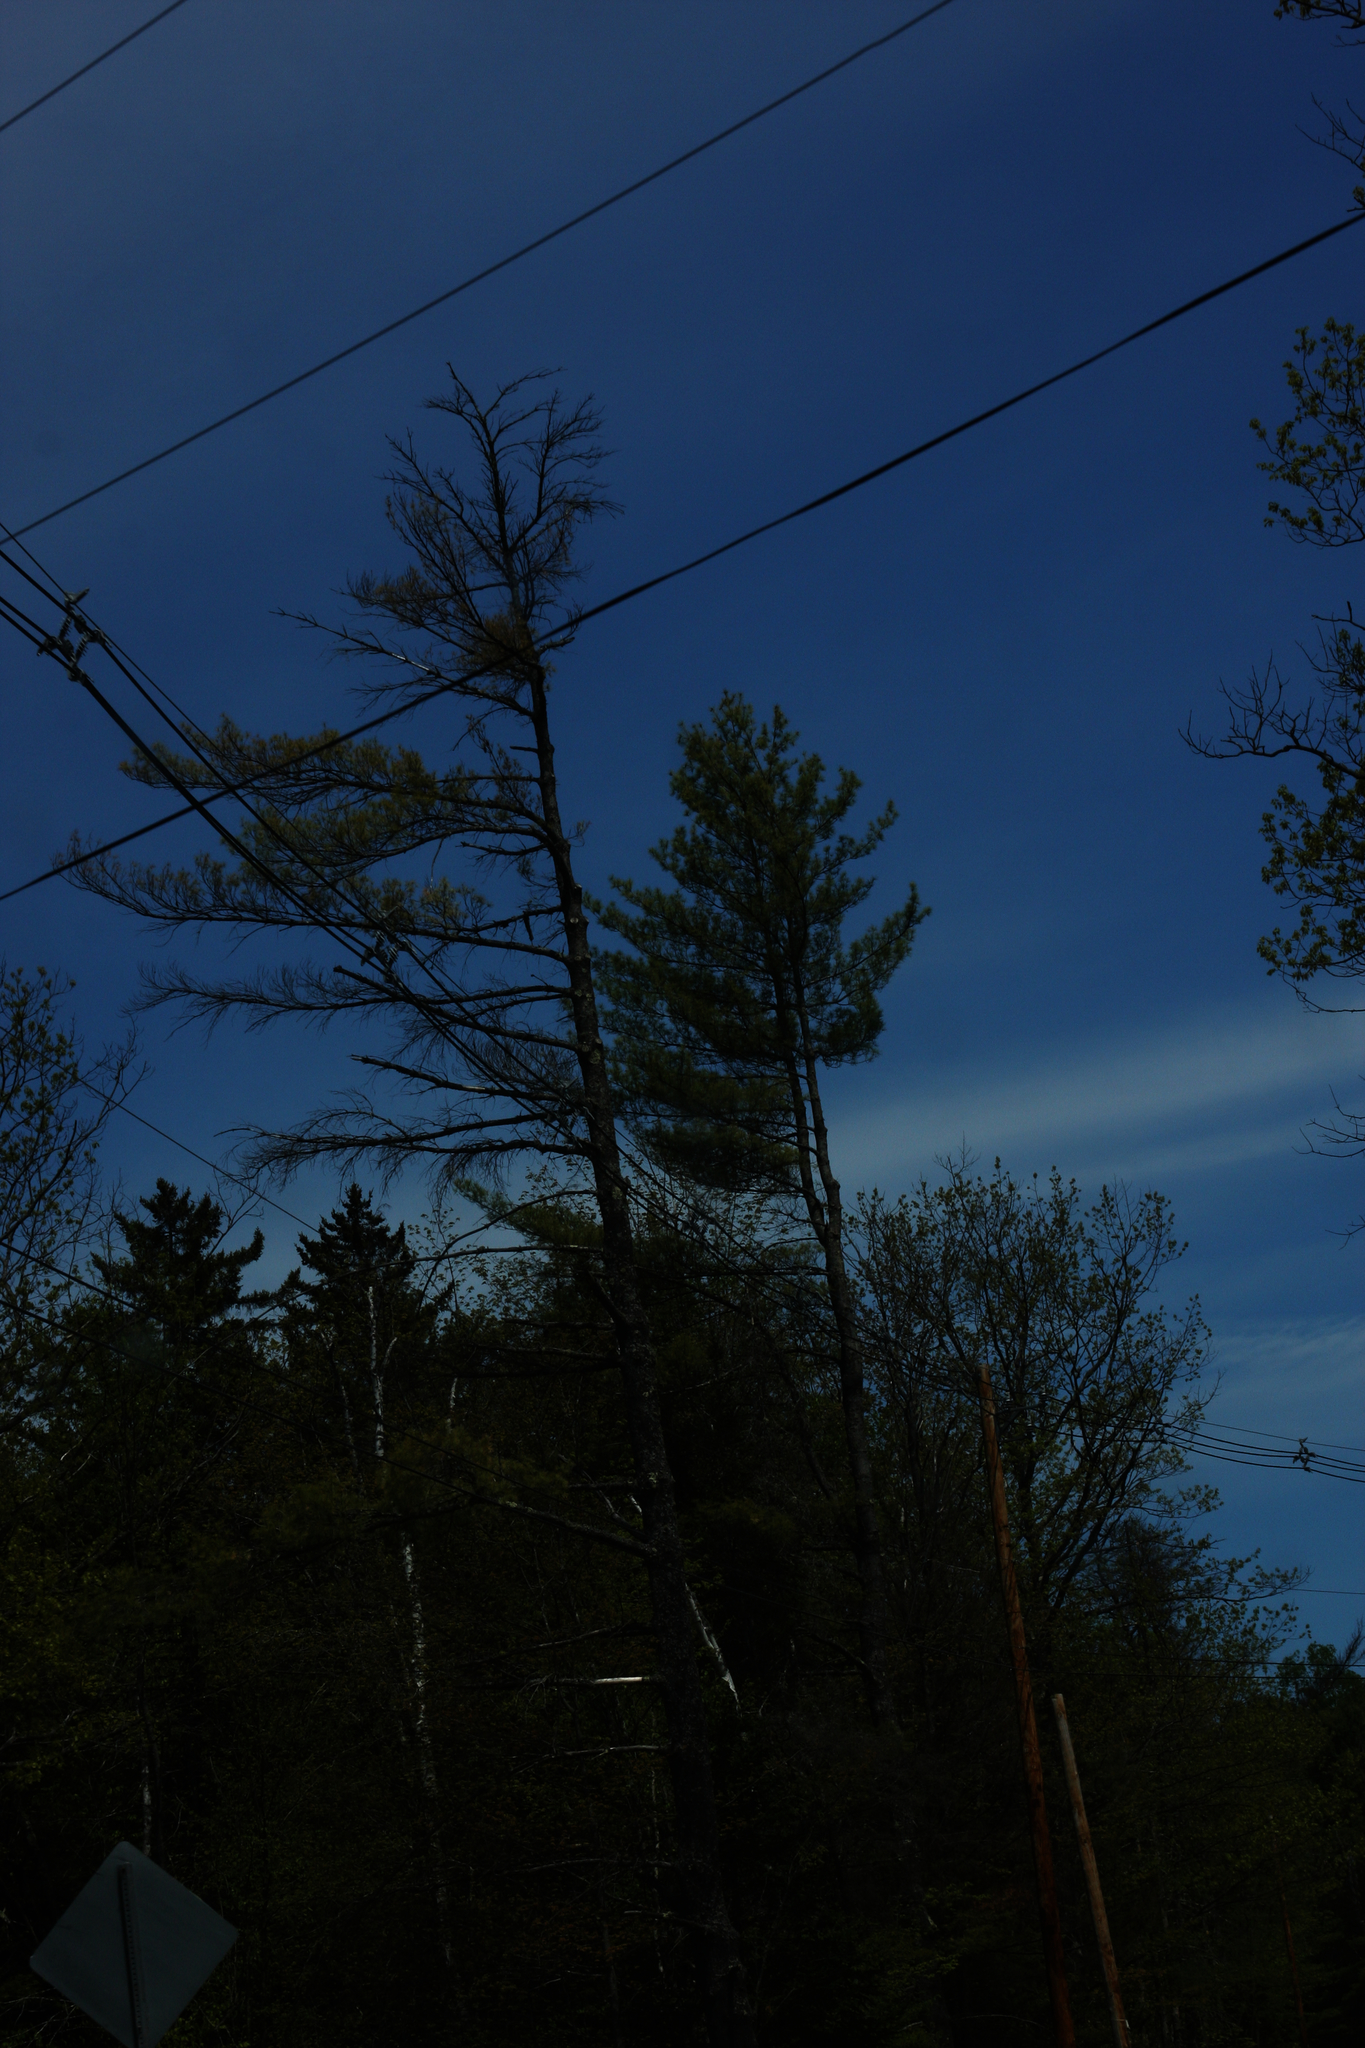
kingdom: Plantae
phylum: Tracheophyta
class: Pinopsida
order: Pinales
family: Pinaceae
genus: Pinus
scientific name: Pinus strobus
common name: Weymouth pine
